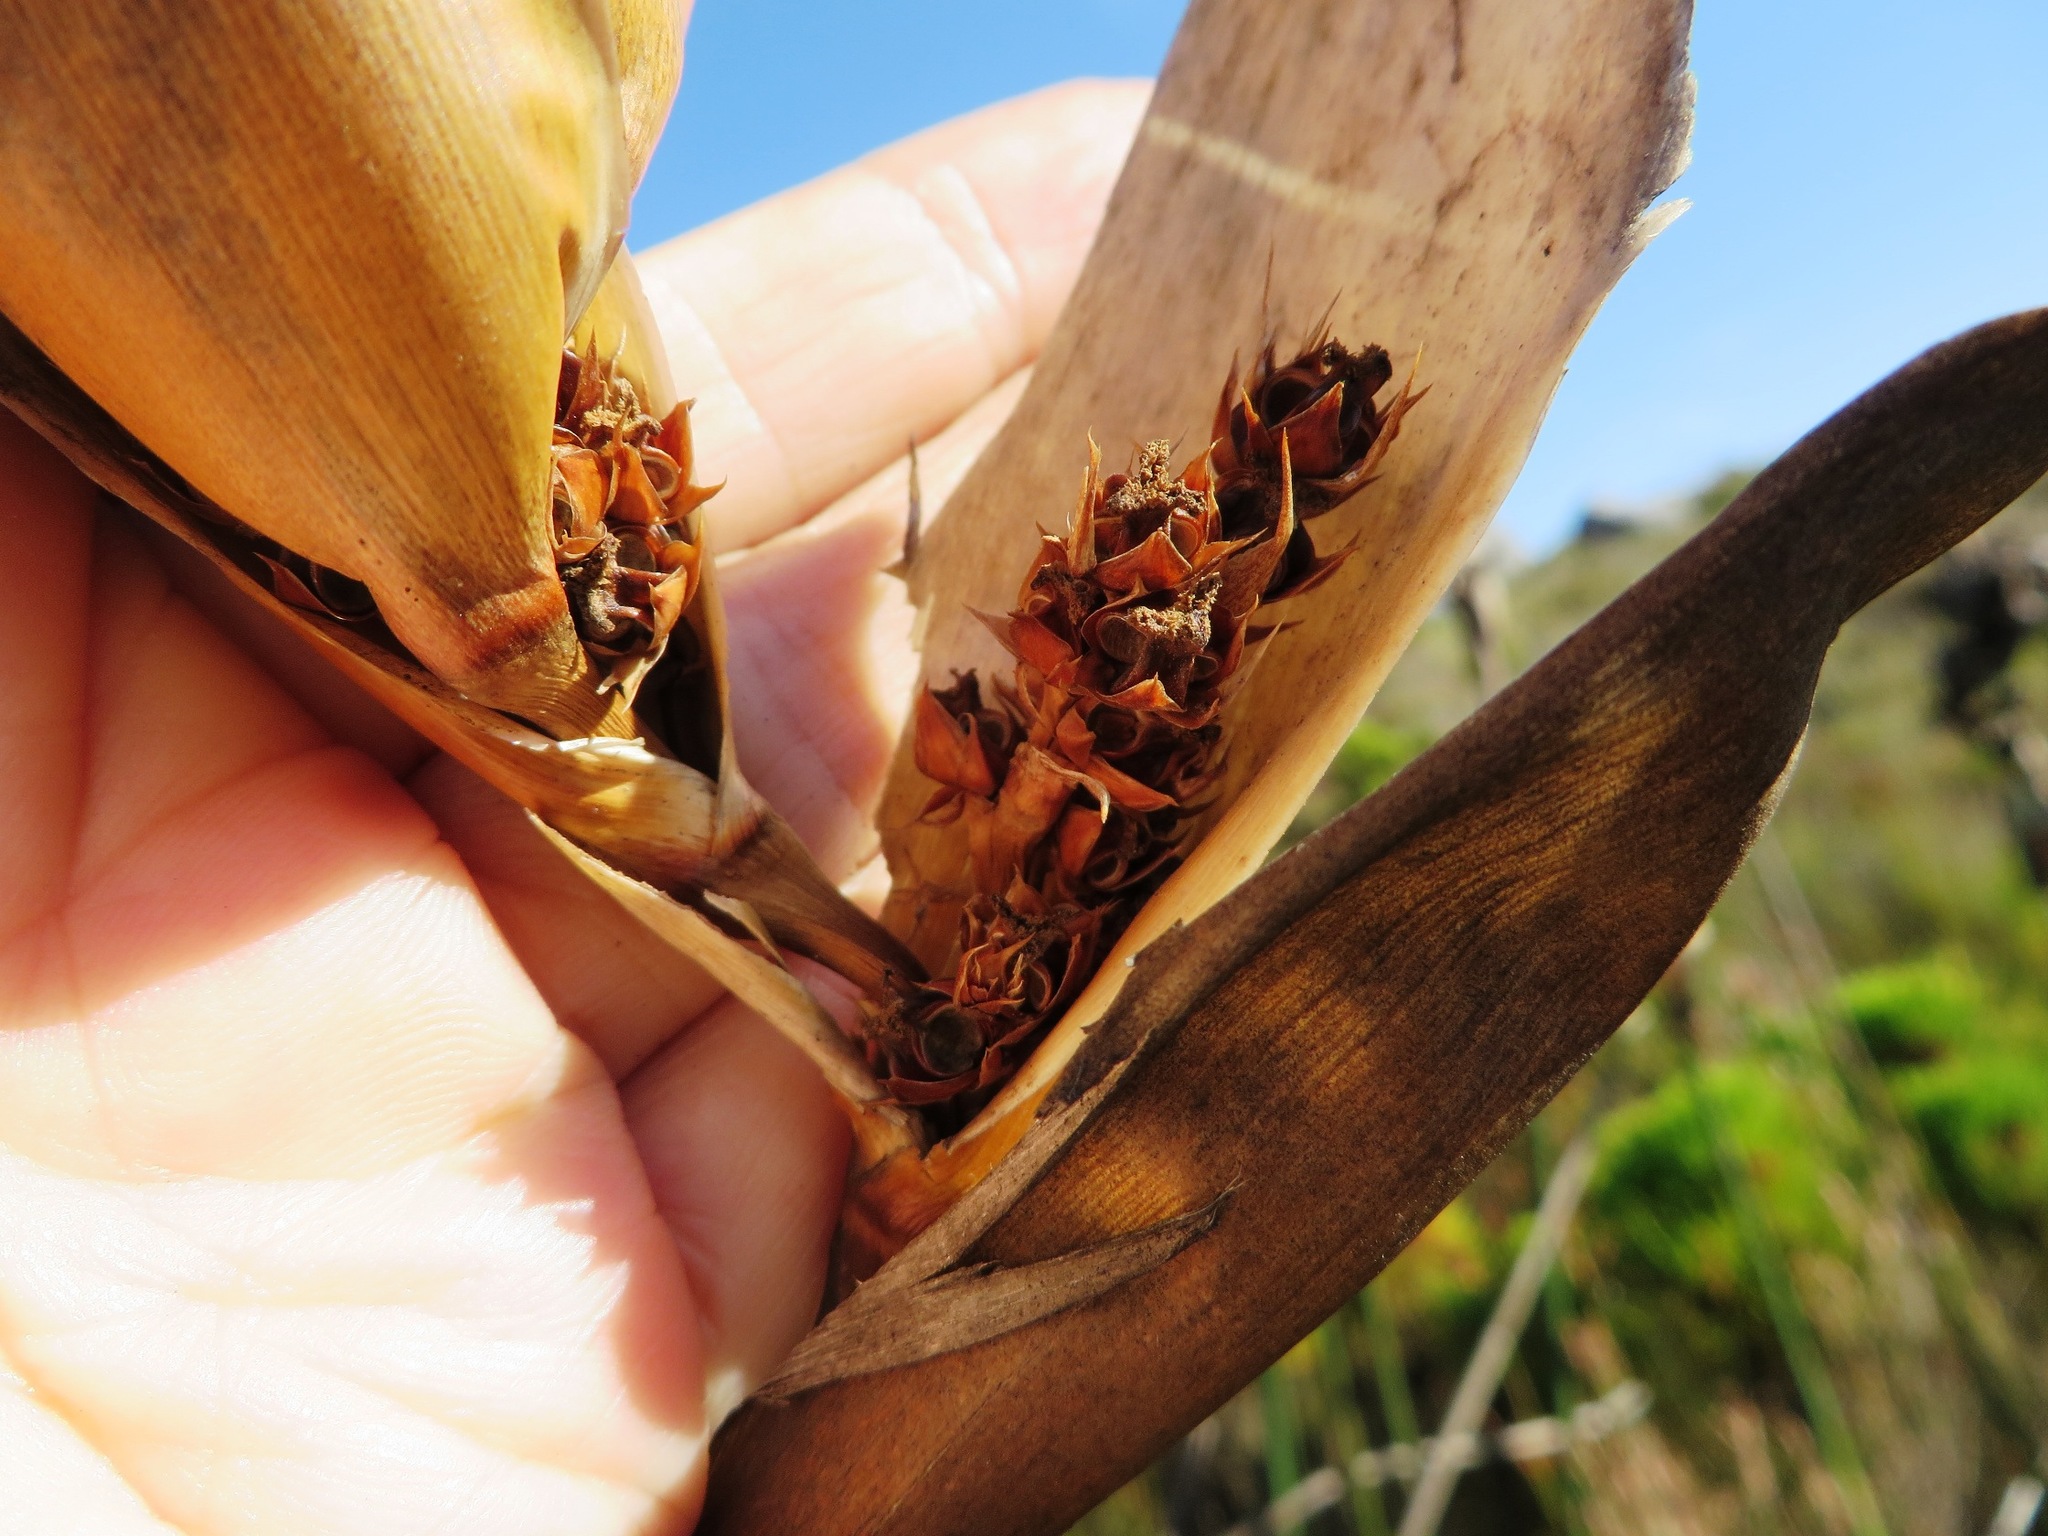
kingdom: Plantae
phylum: Tracheophyta
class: Liliopsida
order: Poales
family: Restionaceae
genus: Elegia
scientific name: Elegia mucronata
